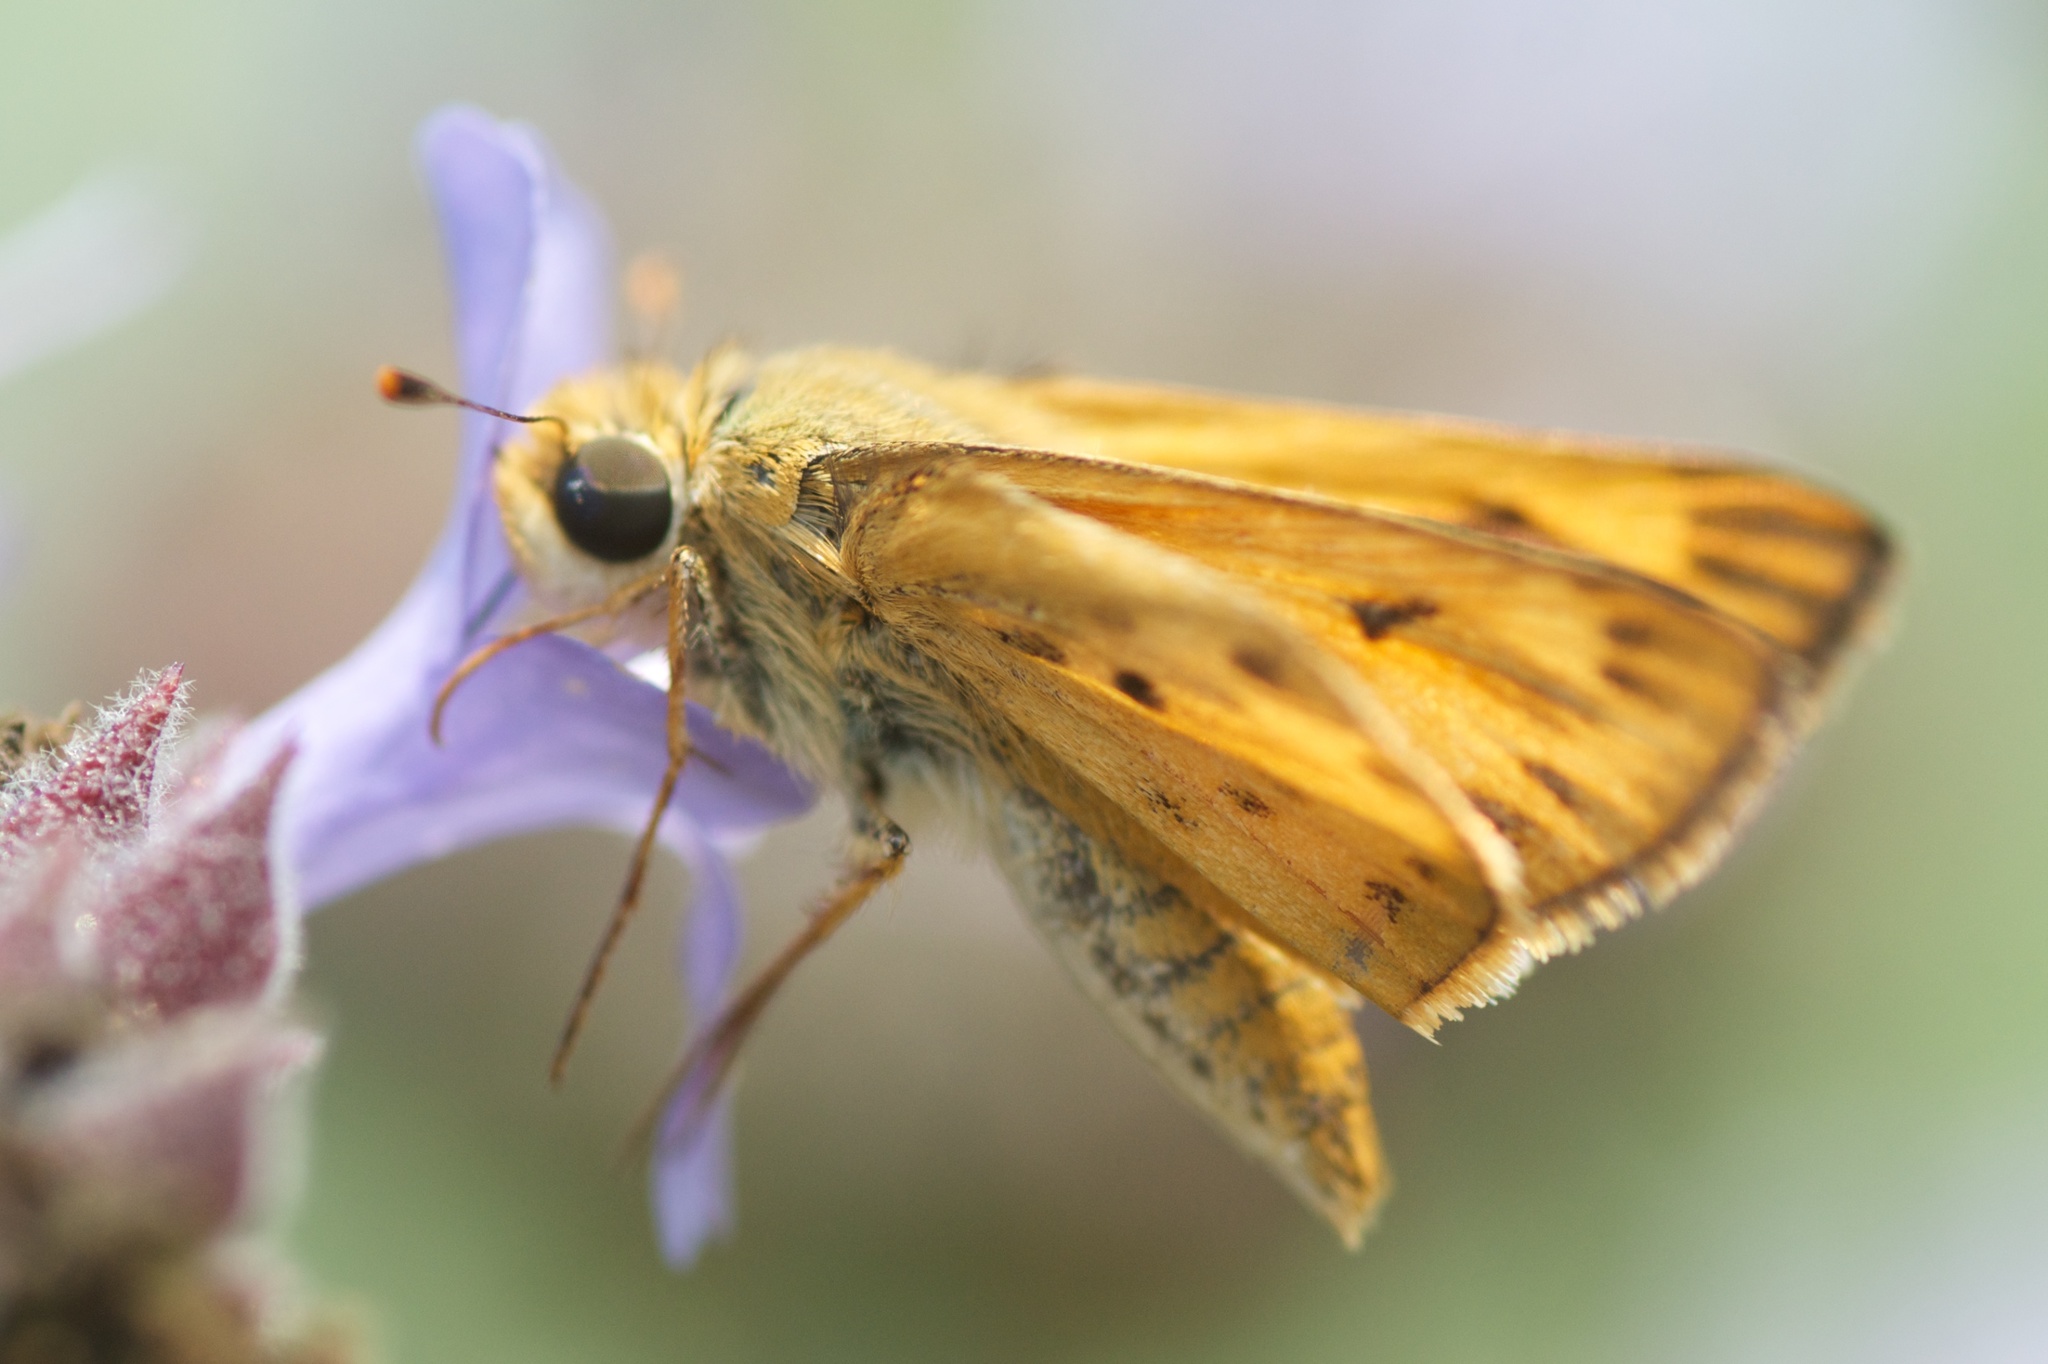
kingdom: Animalia
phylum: Arthropoda
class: Insecta
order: Lepidoptera
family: Hesperiidae
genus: Hylephila
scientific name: Hylephila phyleus
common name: Fiery skipper
